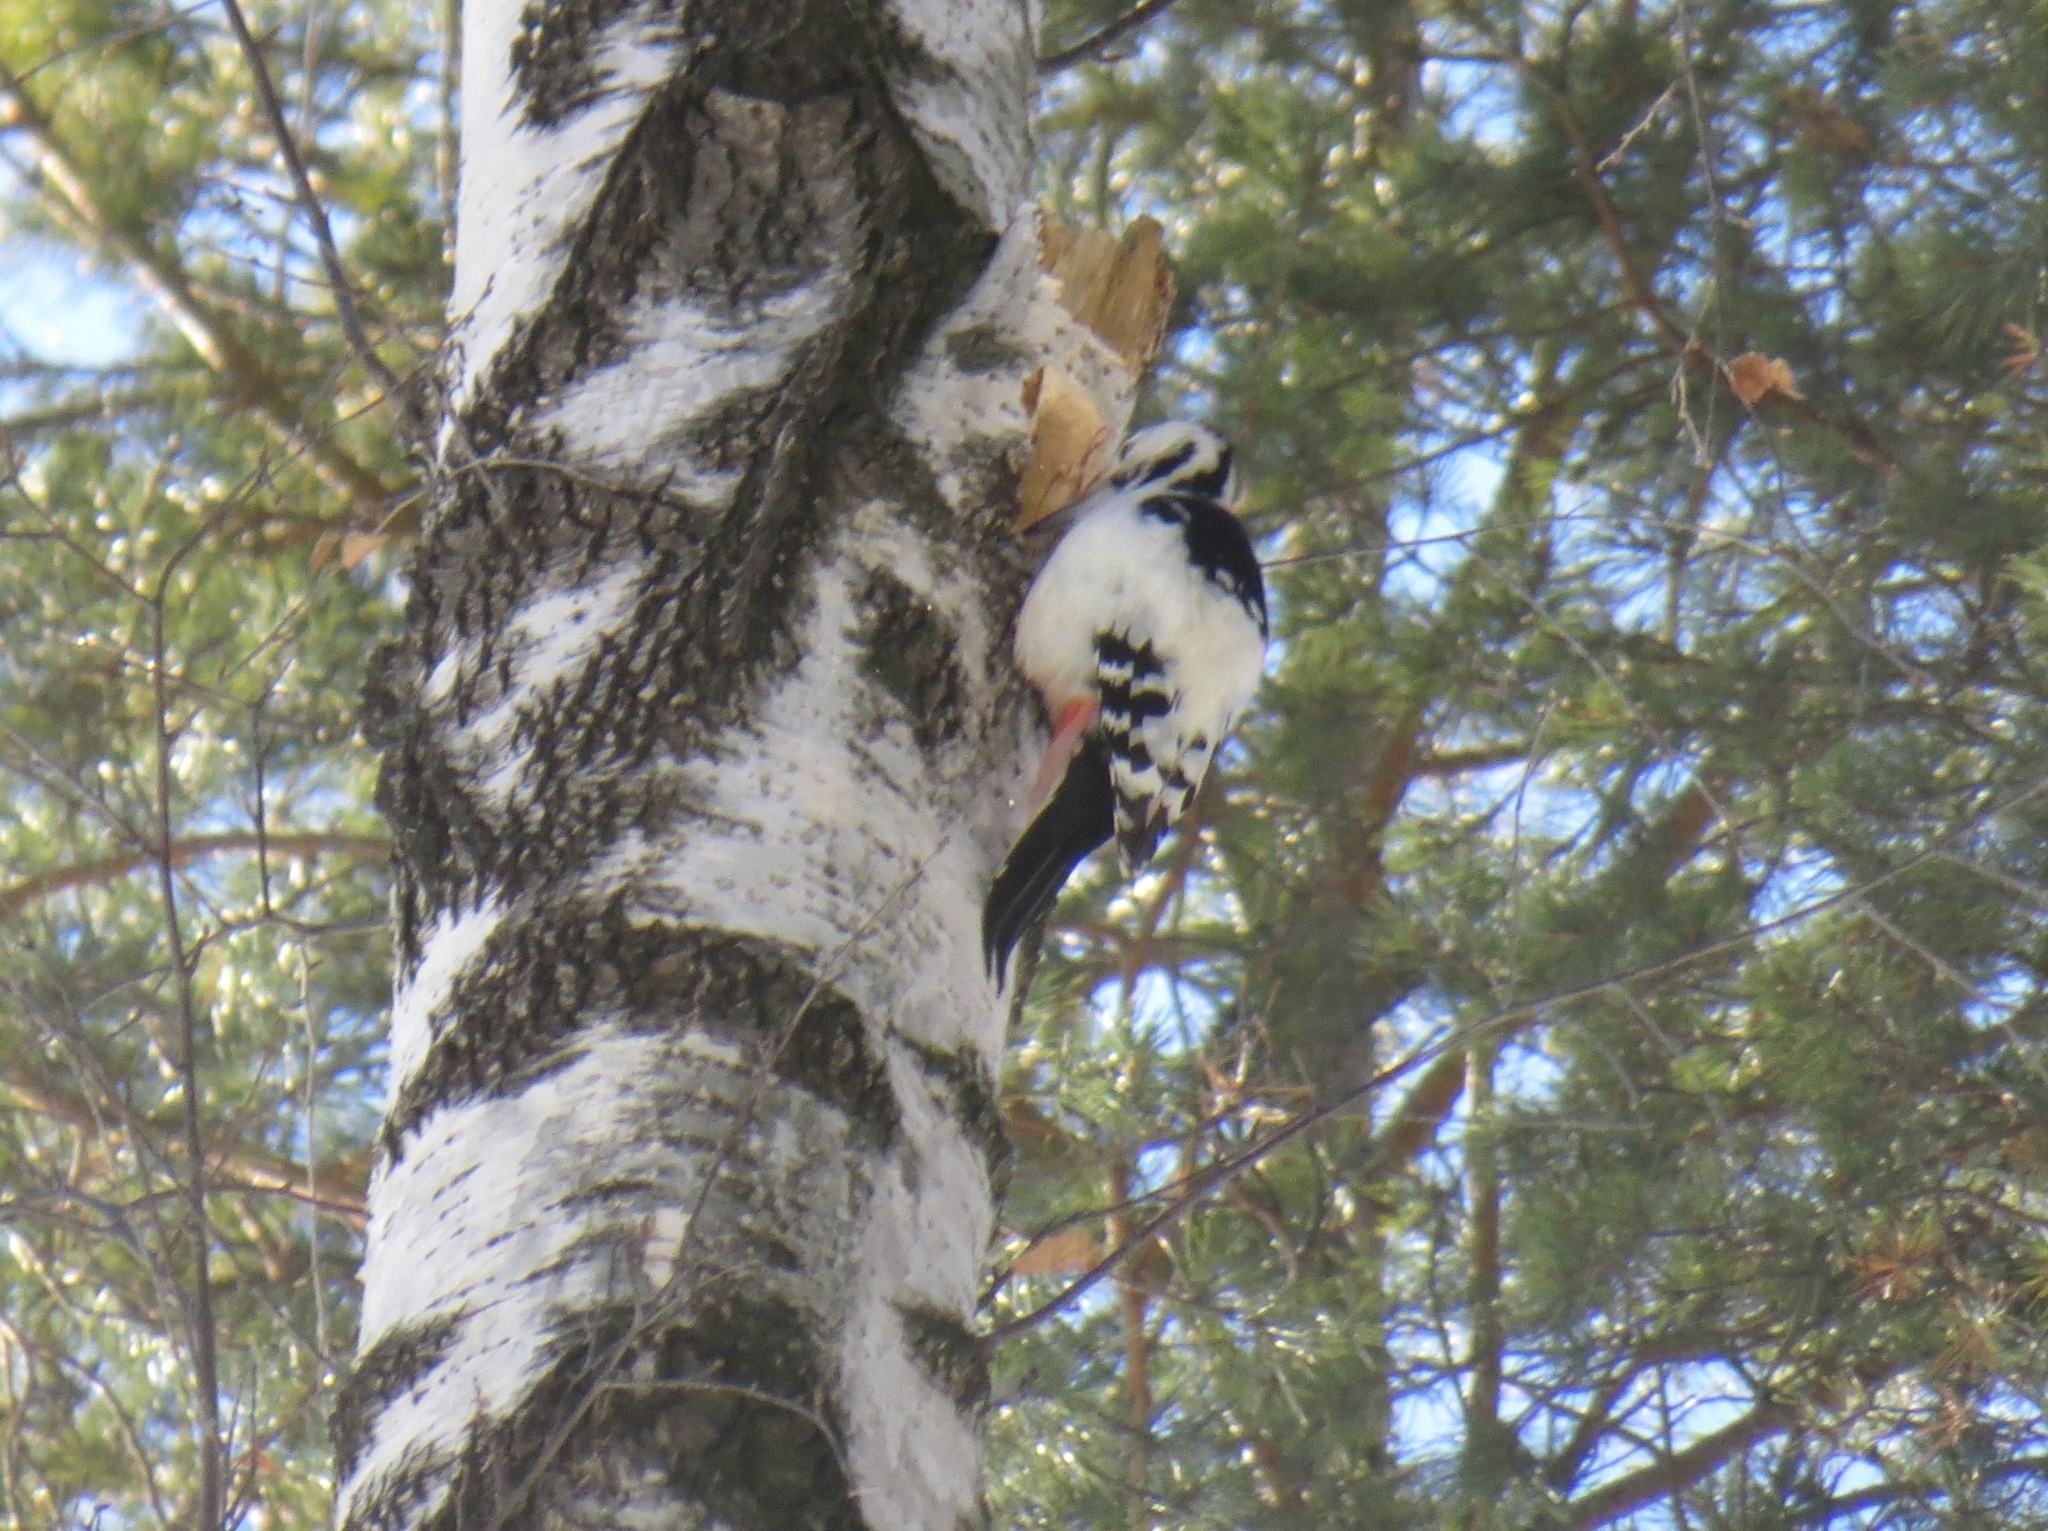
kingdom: Animalia
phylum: Chordata
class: Aves
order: Piciformes
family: Picidae
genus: Dendrocopos
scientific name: Dendrocopos leucotos
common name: White-backed woodpecker
